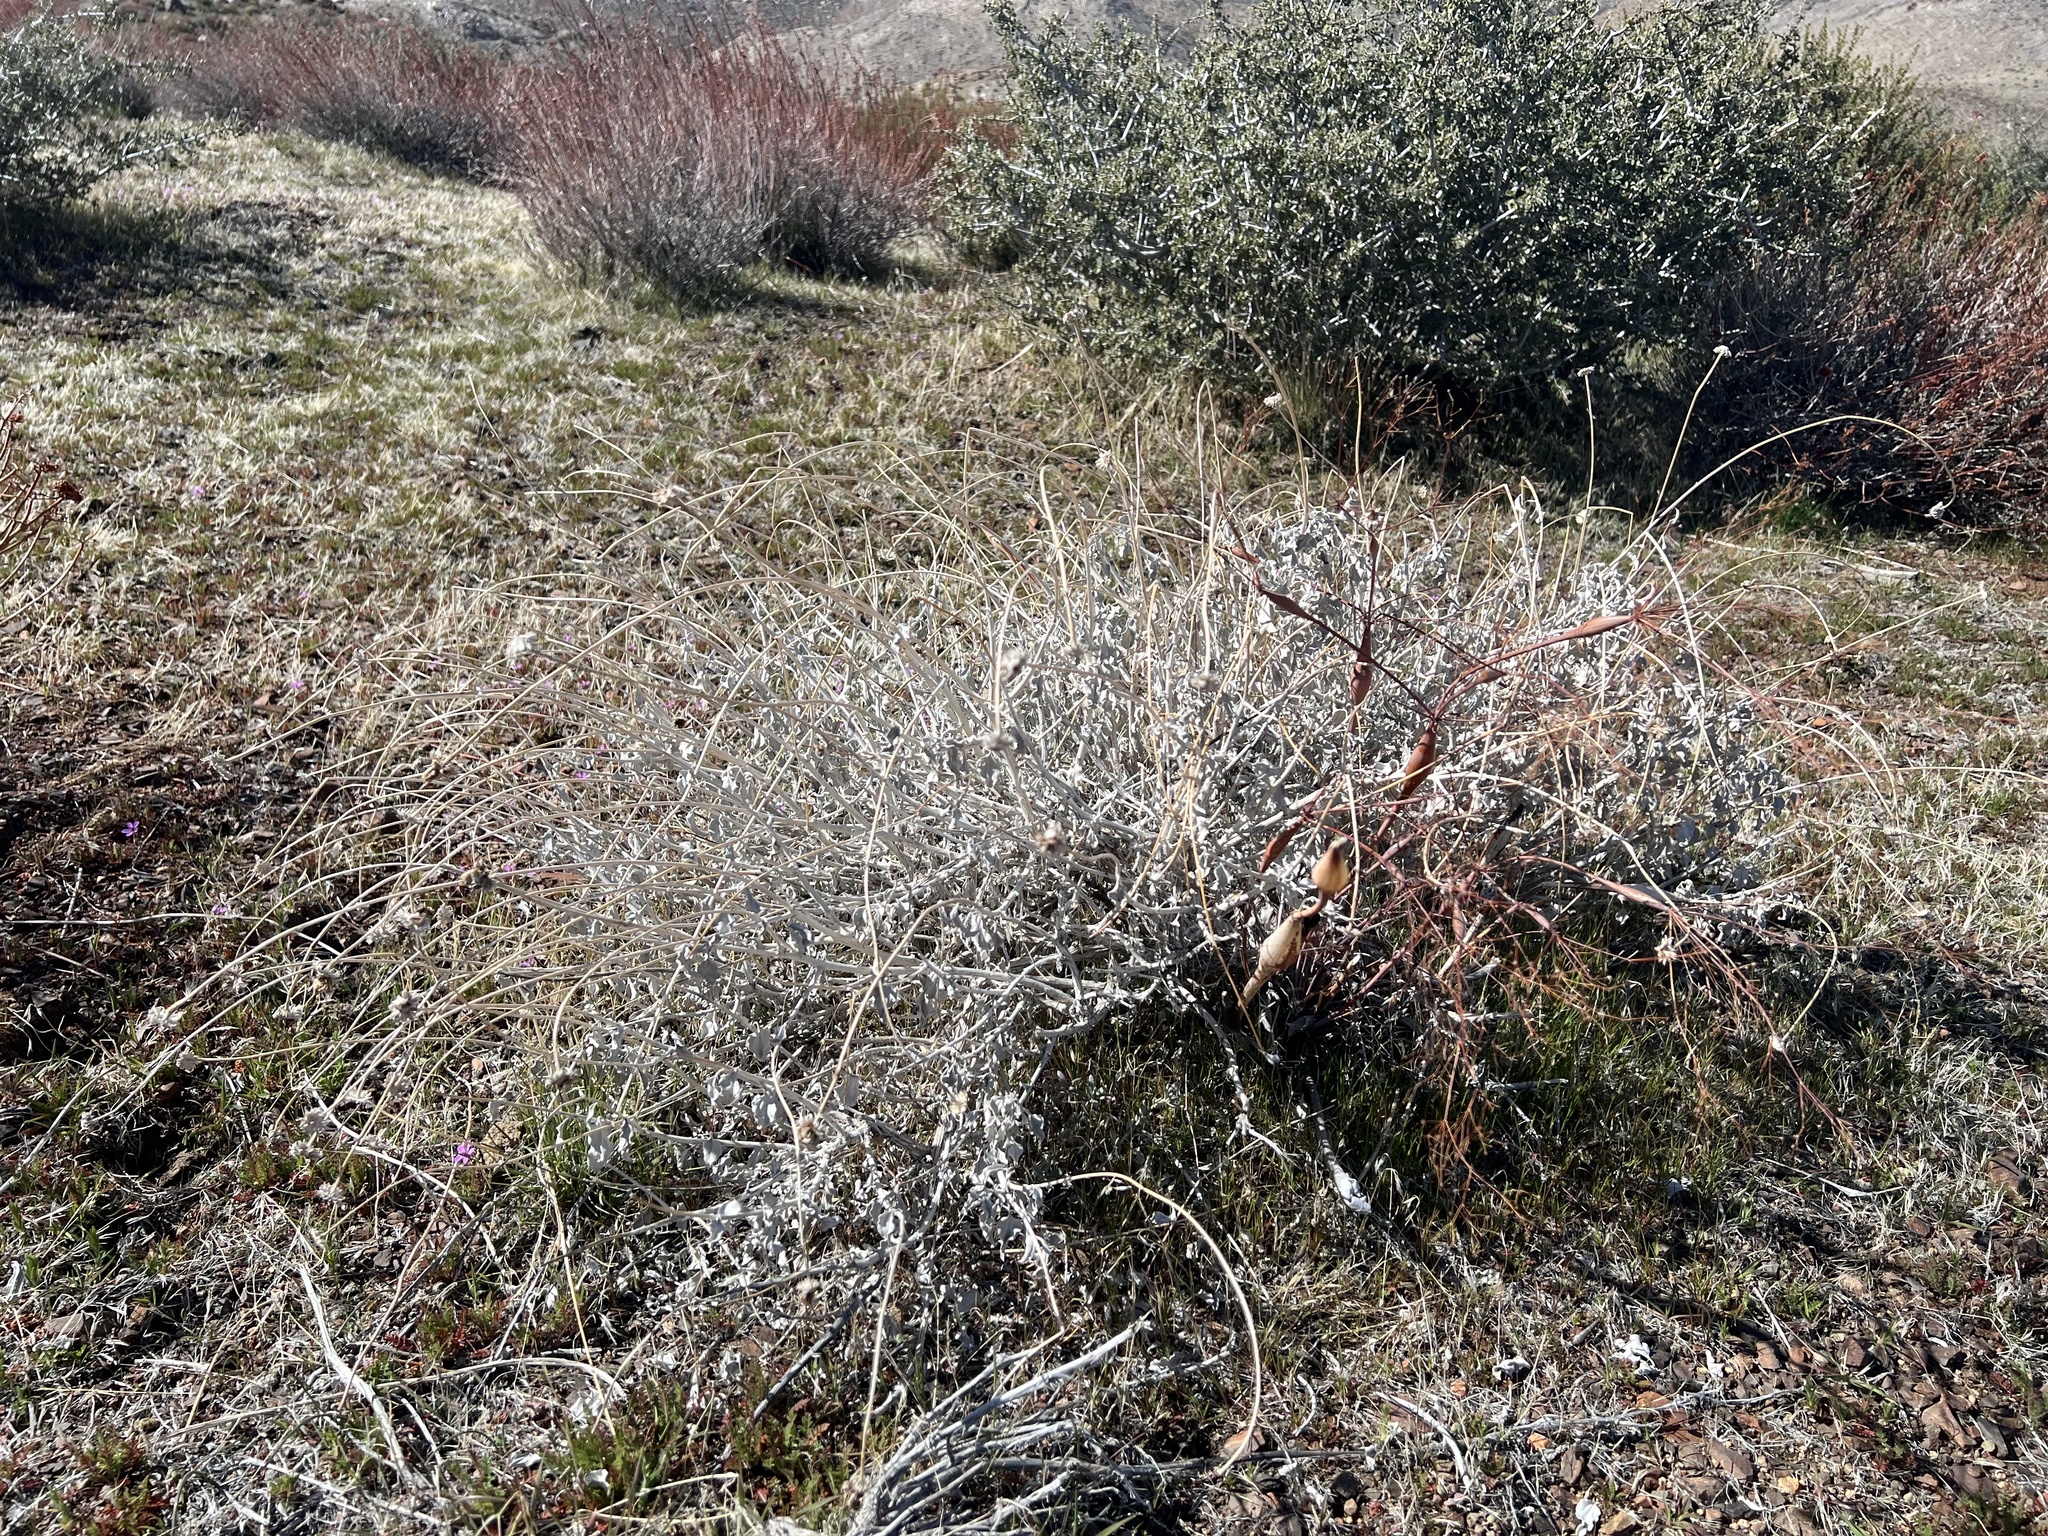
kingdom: Plantae
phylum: Tracheophyta
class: Magnoliopsida
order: Asterales
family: Asteraceae
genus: Encelia
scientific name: Encelia actoni
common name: Acton encelia
